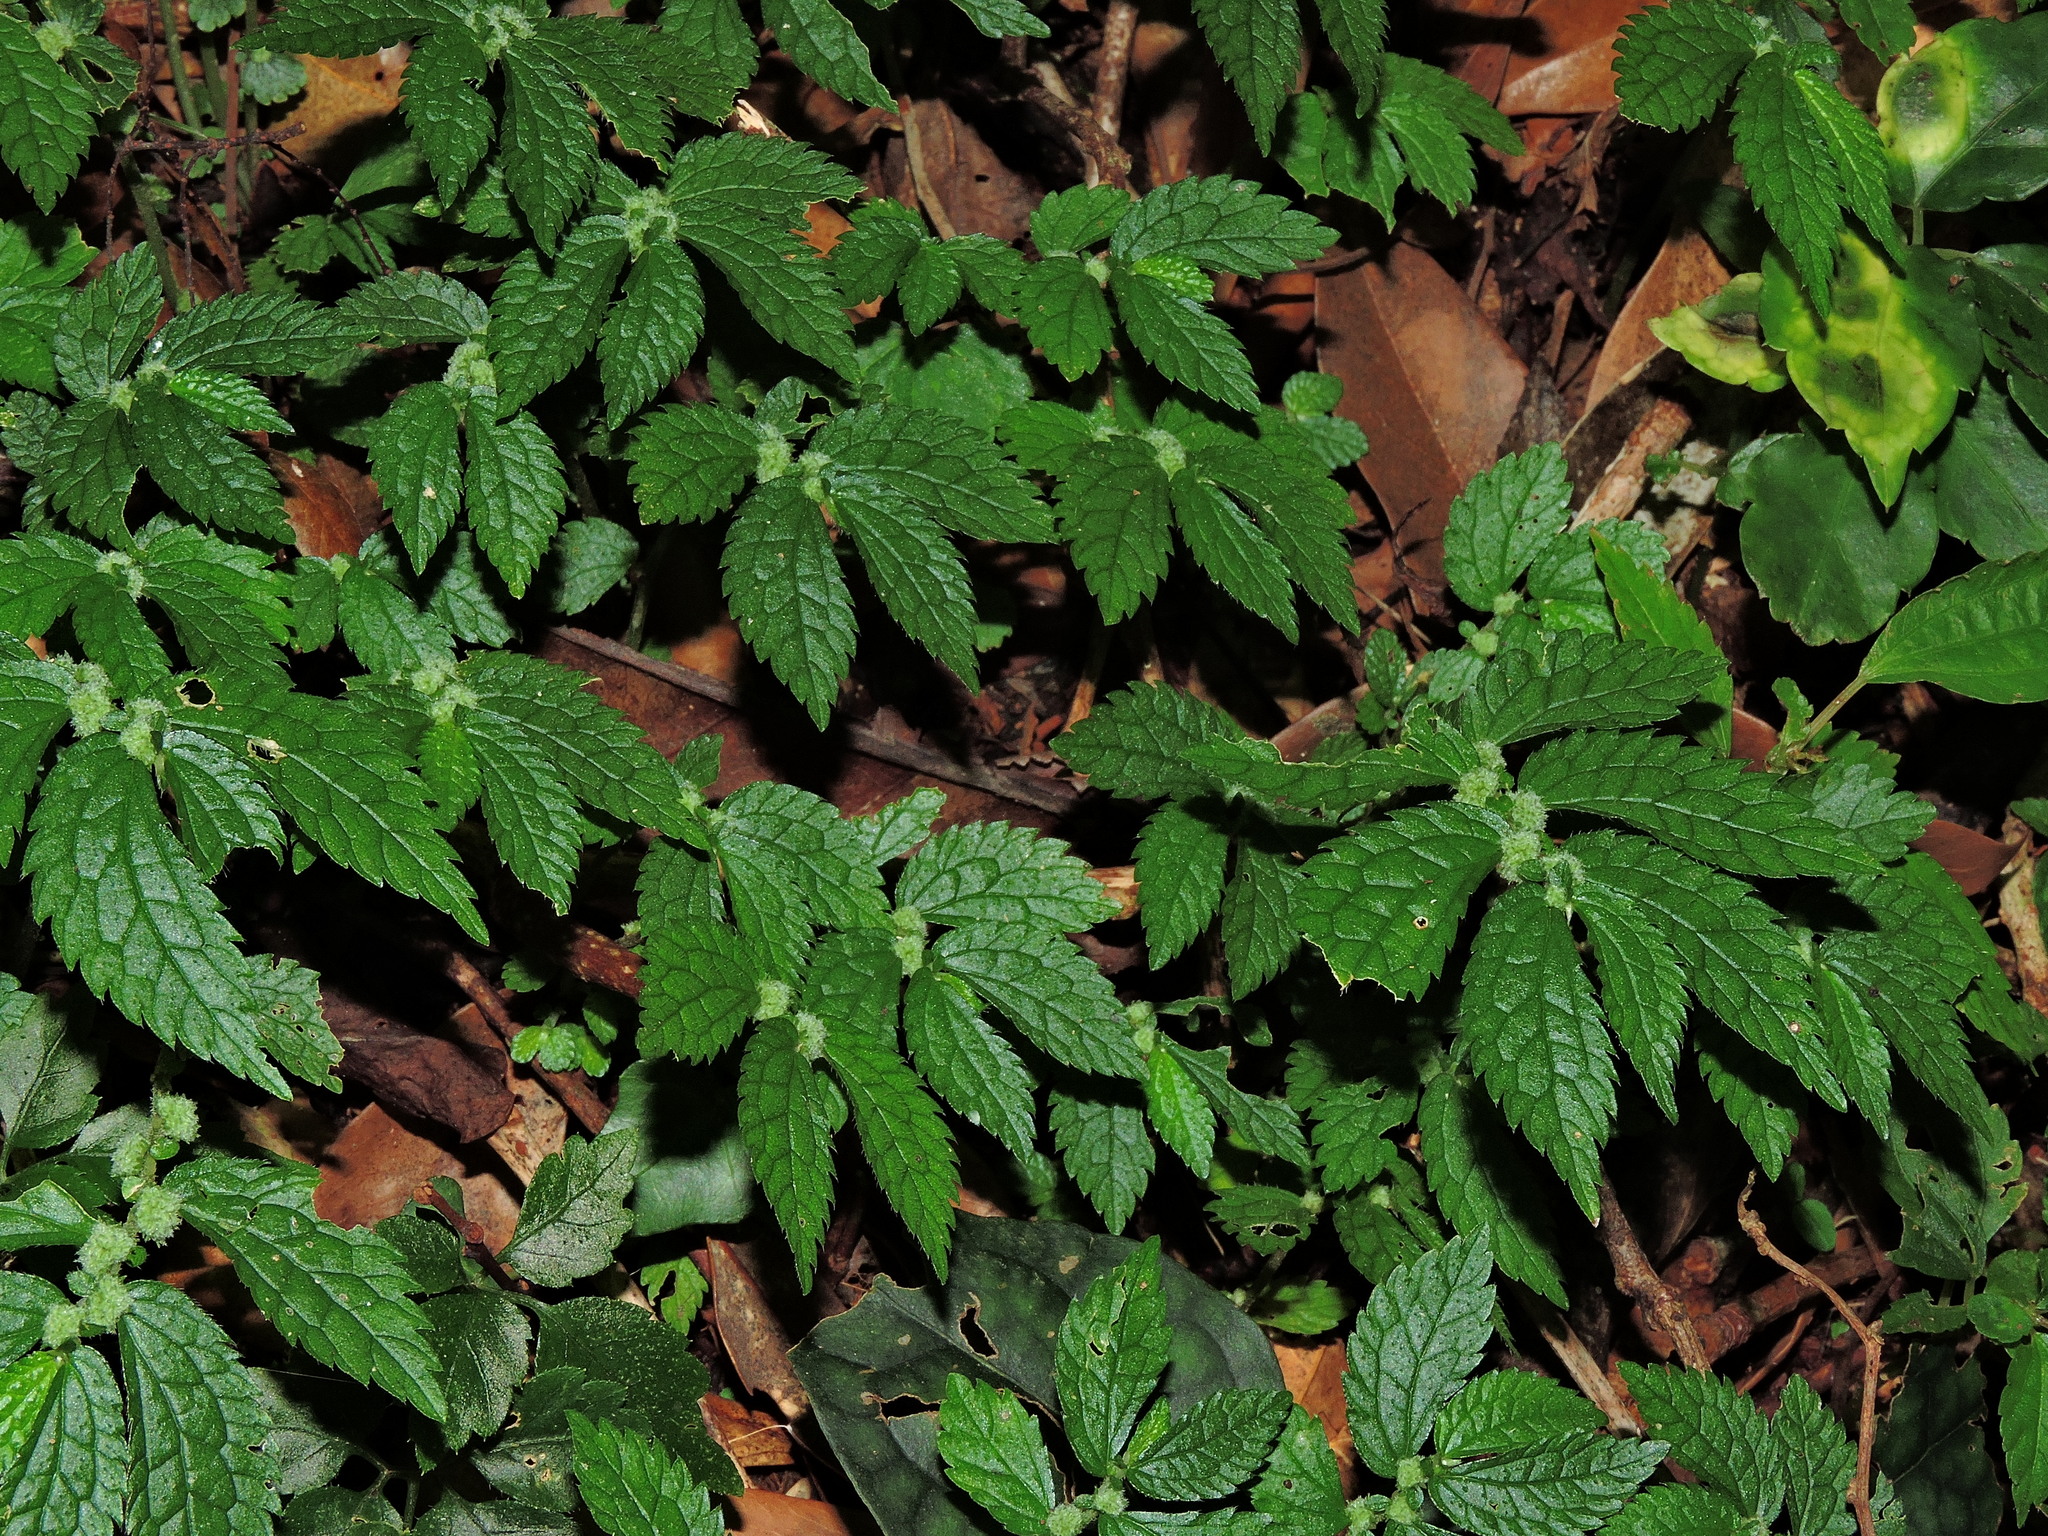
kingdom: Plantae
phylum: Tracheophyta
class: Magnoliopsida
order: Rosales
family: Urticaceae
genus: Elatostema
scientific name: Elatostema parvum
